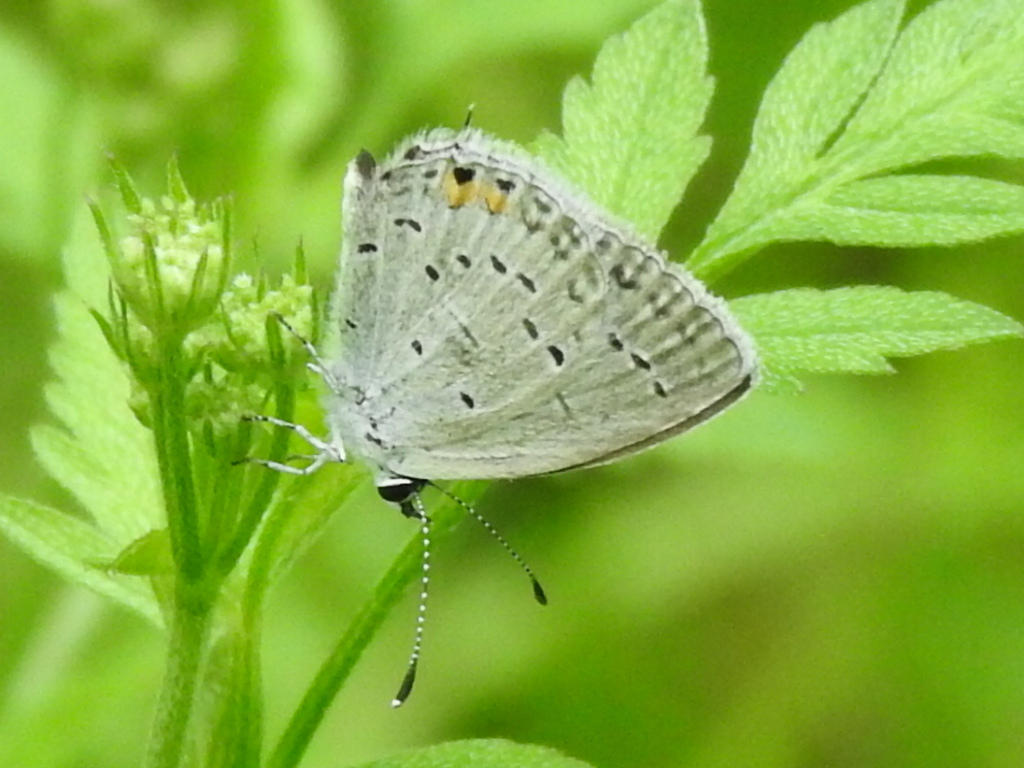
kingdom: Animalia
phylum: Arthropoda
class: Insecta
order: Lepidoptera
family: Lycaenidae
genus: Elkalyce
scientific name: Elkalyce comyntas
